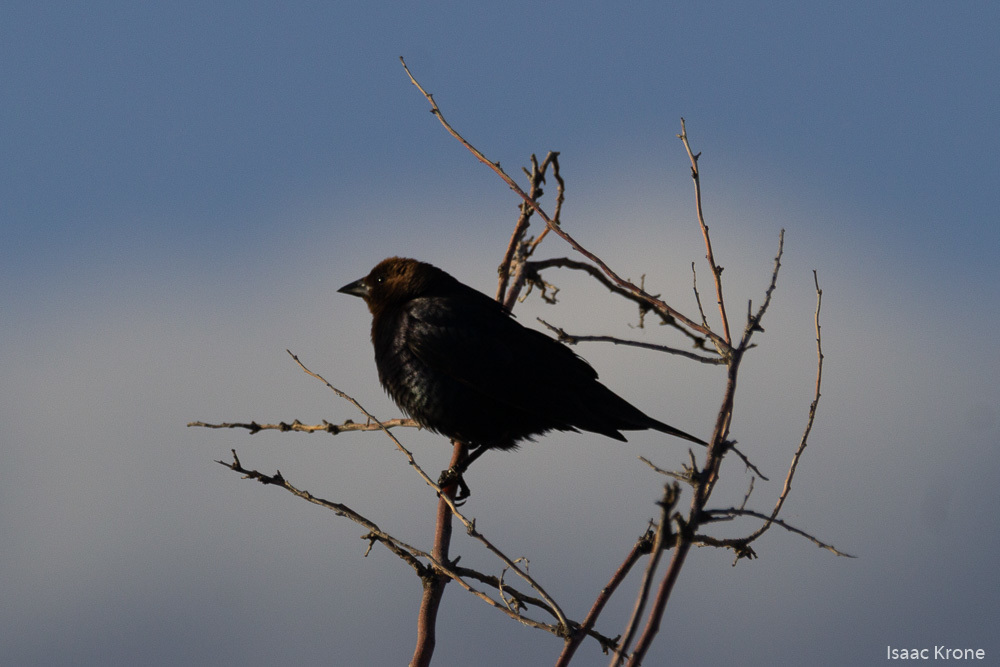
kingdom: Animalia
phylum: Chordata
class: Aves
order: Passeriformes
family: Icteridae
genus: Molothrus
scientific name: Molothrus ater
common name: Brown-headed cowbird
